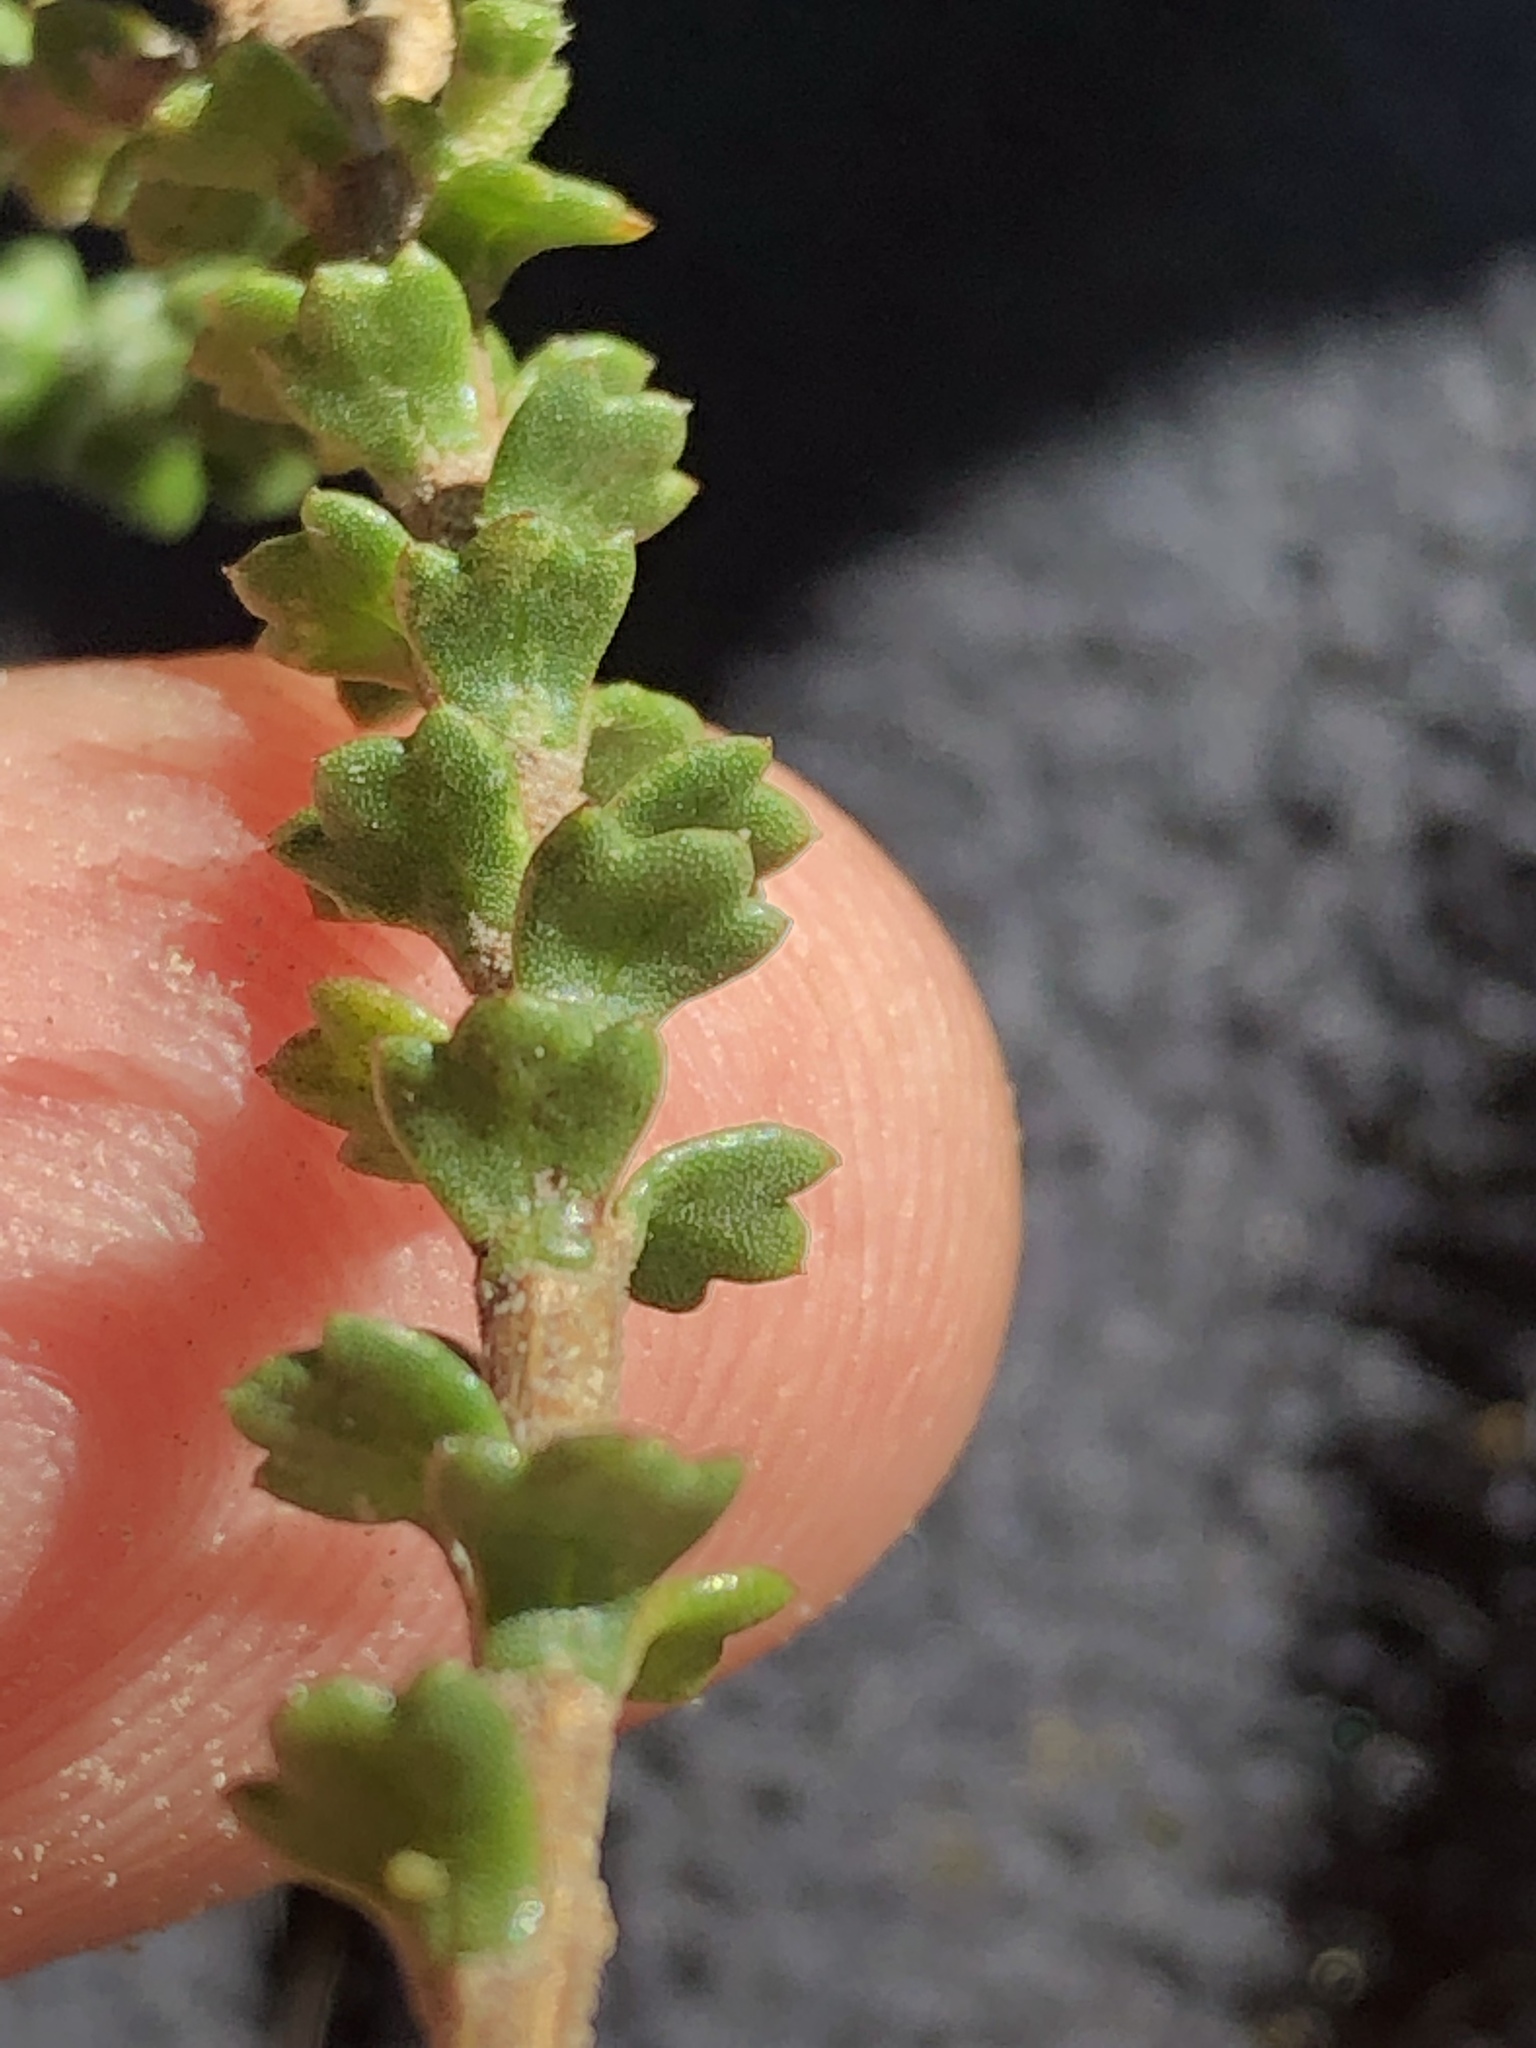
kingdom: Plantae
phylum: Tracheophyta
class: Magnoliopsida
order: Asterales
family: Asteraceae
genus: Athanasia
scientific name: Athanasia quinquedentata
